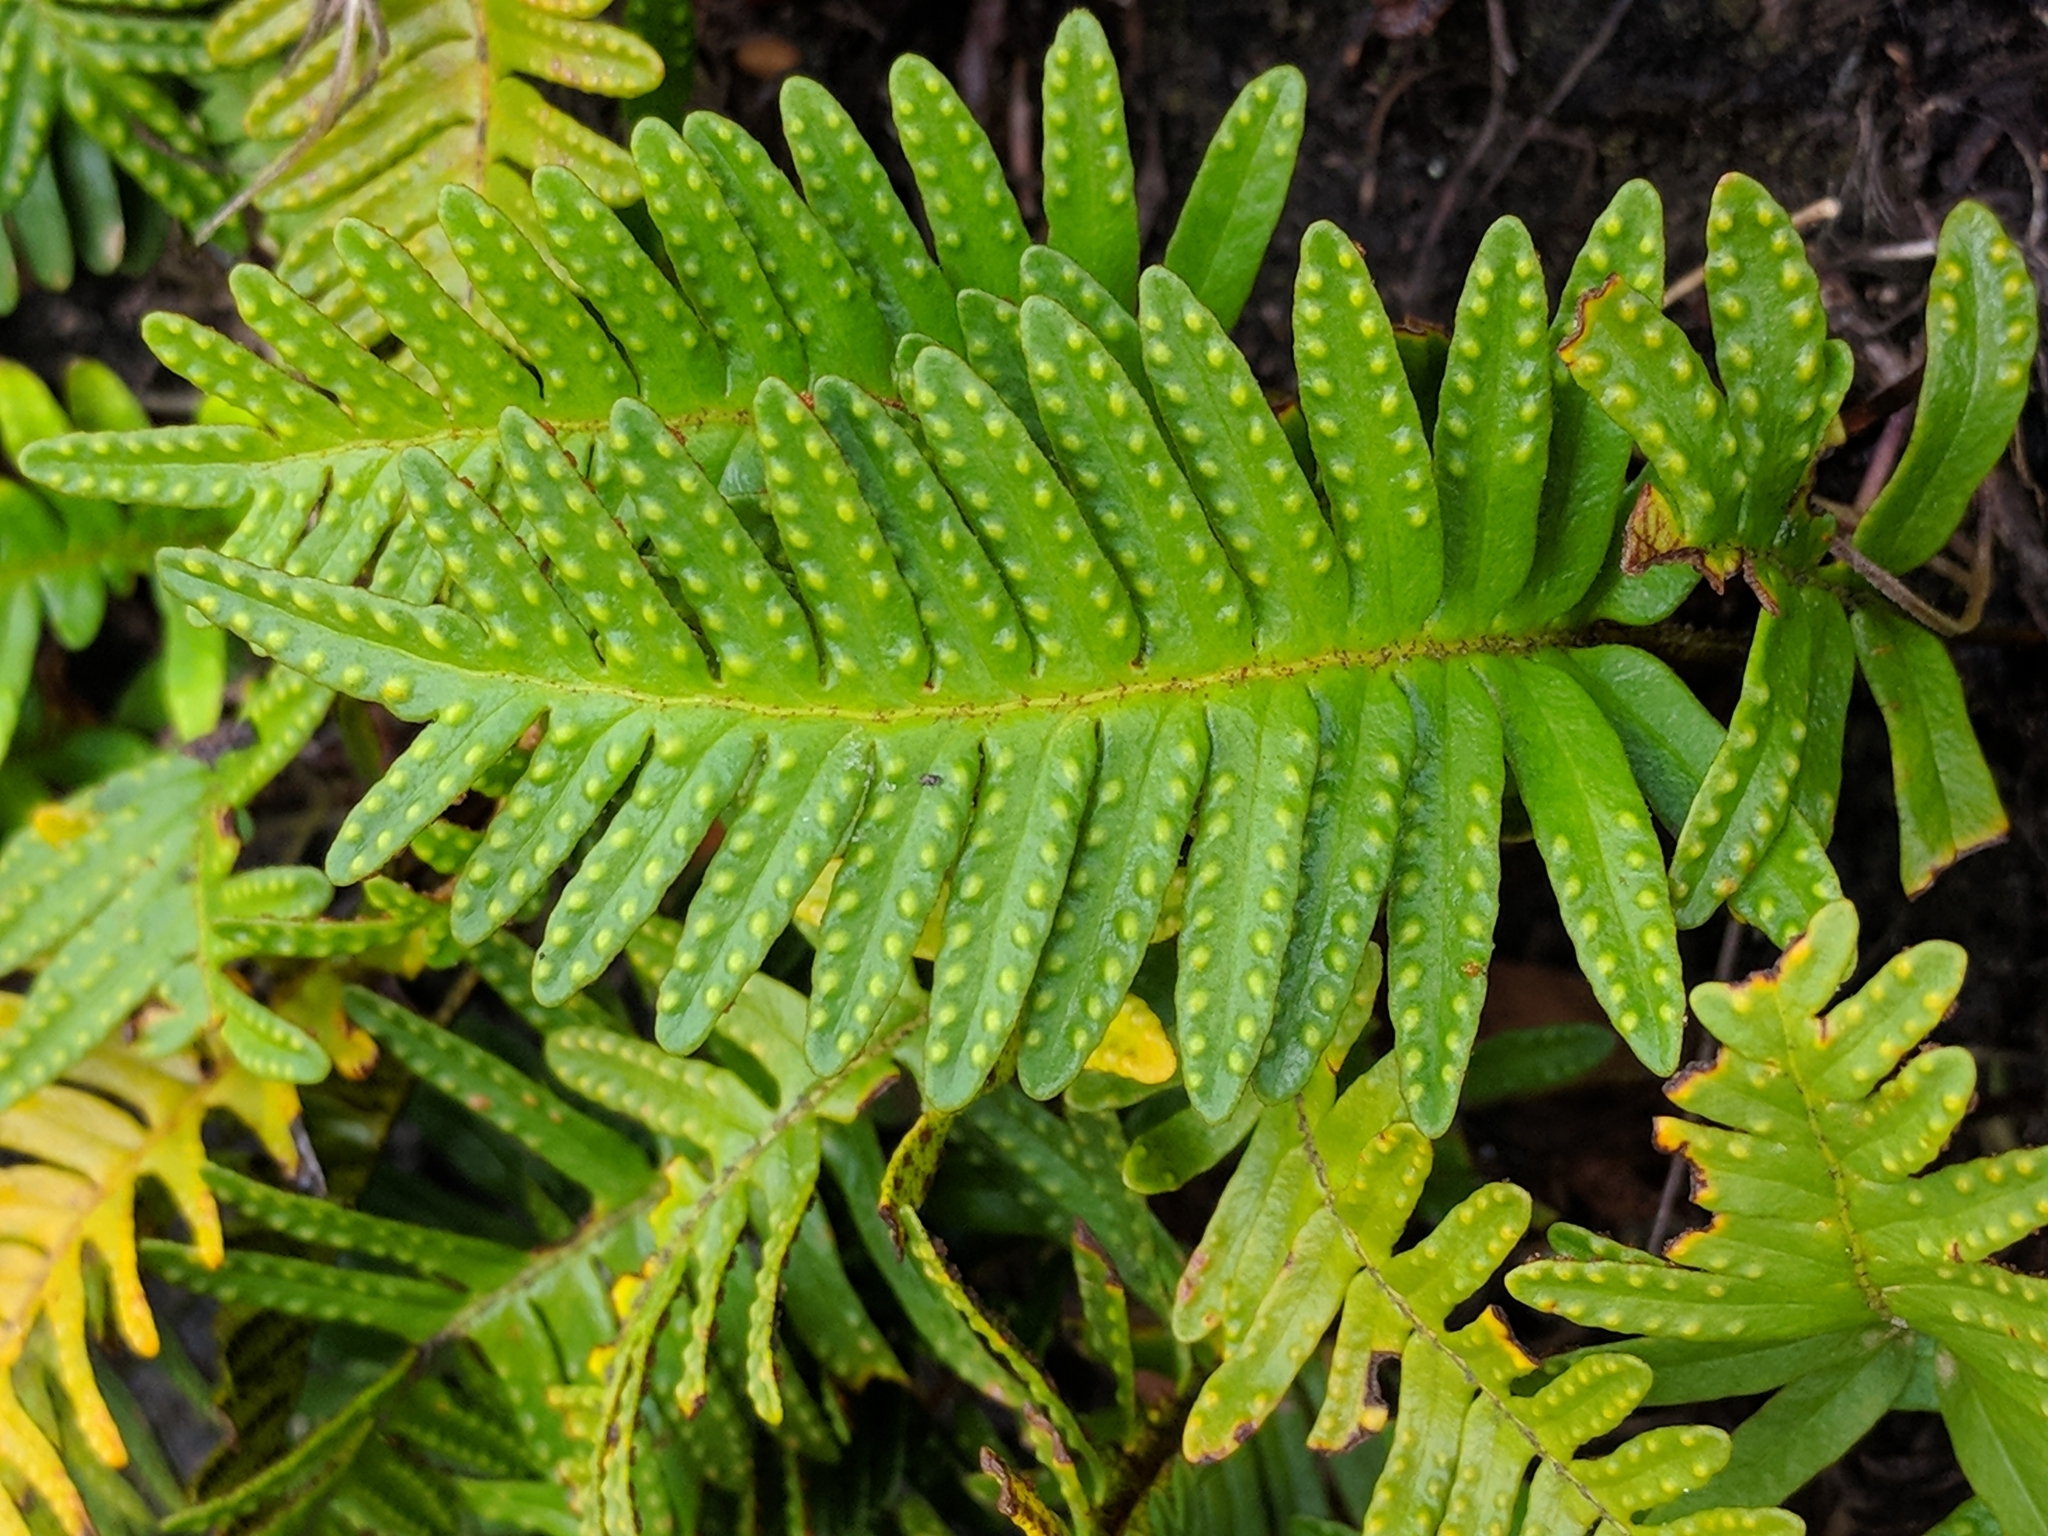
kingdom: Plantae
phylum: Tracheophyta
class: Polypodiopsida
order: Polypodiales
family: Polypodiaceae
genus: Pleopeltis
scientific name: Pleopeltis michauxiana
